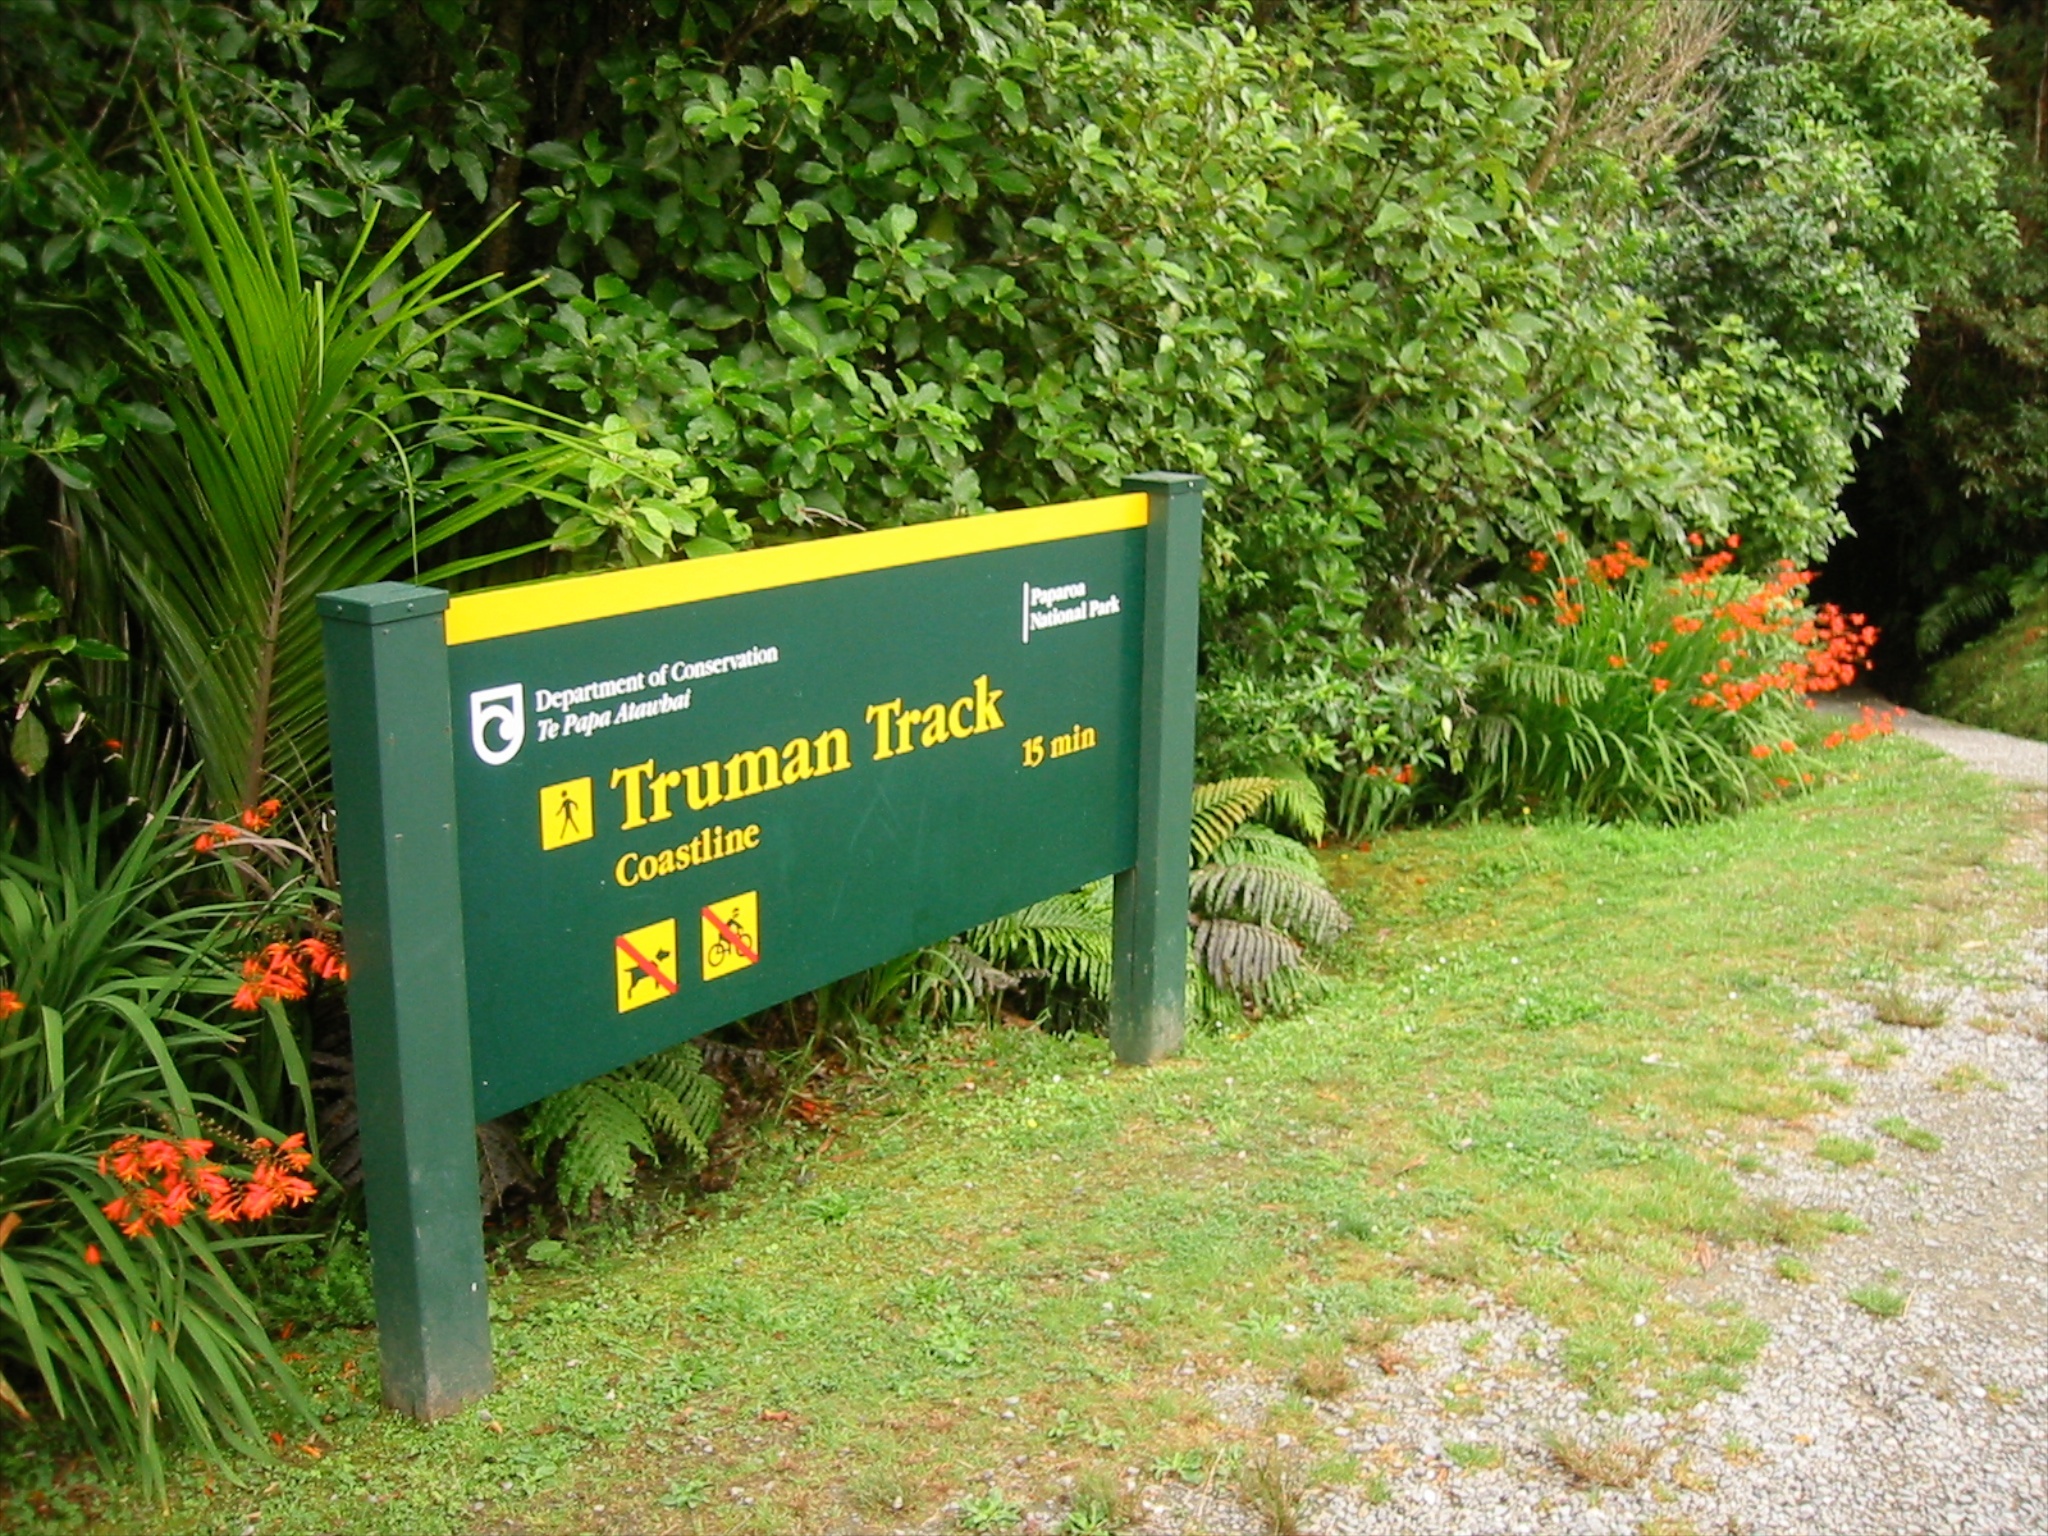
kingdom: Plantae
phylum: Tracheophyta
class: Liliopsida
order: Asparagales
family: Iridaceae
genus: Crocosmia
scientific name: Crocosmia crocosmiiflora
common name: Montbretia
